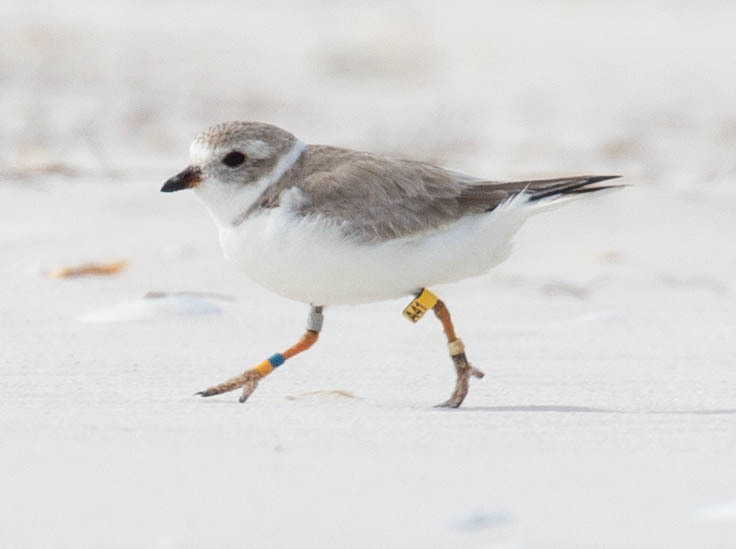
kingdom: Animalia
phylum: Chordata
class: Aves
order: Charadriiformes
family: Charadriidae
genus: Charadrius
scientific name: Charadrius melodus
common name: Piping plover
